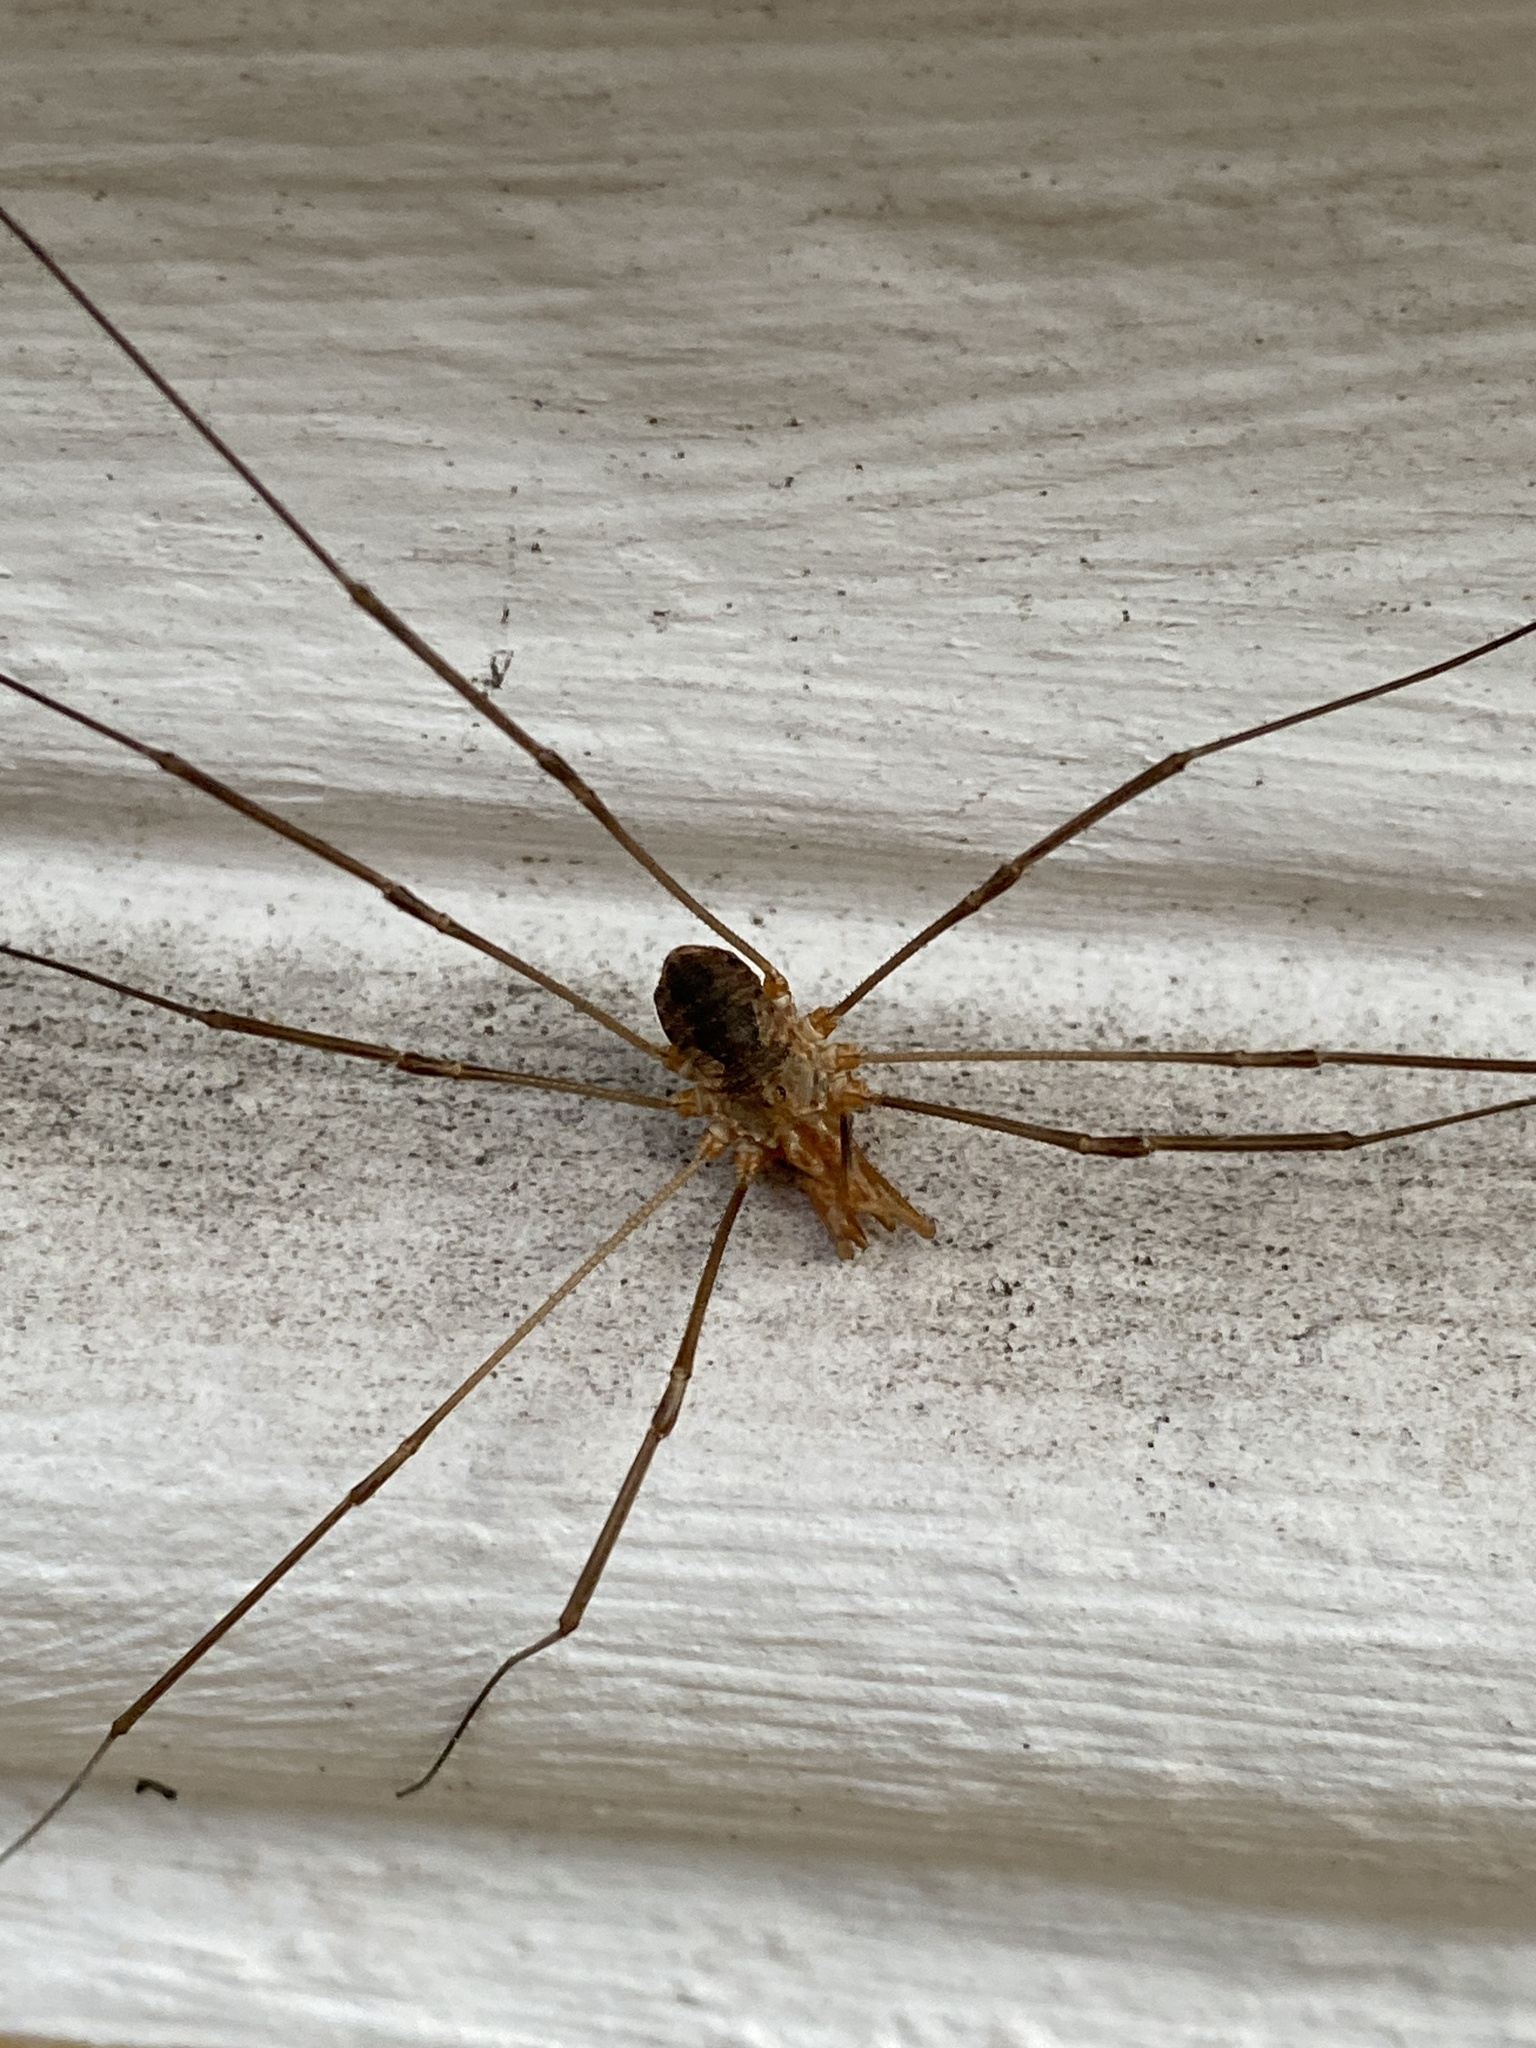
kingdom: Animalia
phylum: Arthropoda
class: Arachnida
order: Opiliones
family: Phalangiidae
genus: Phalangium
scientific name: Phalangium opilio
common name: Daddy longleg
